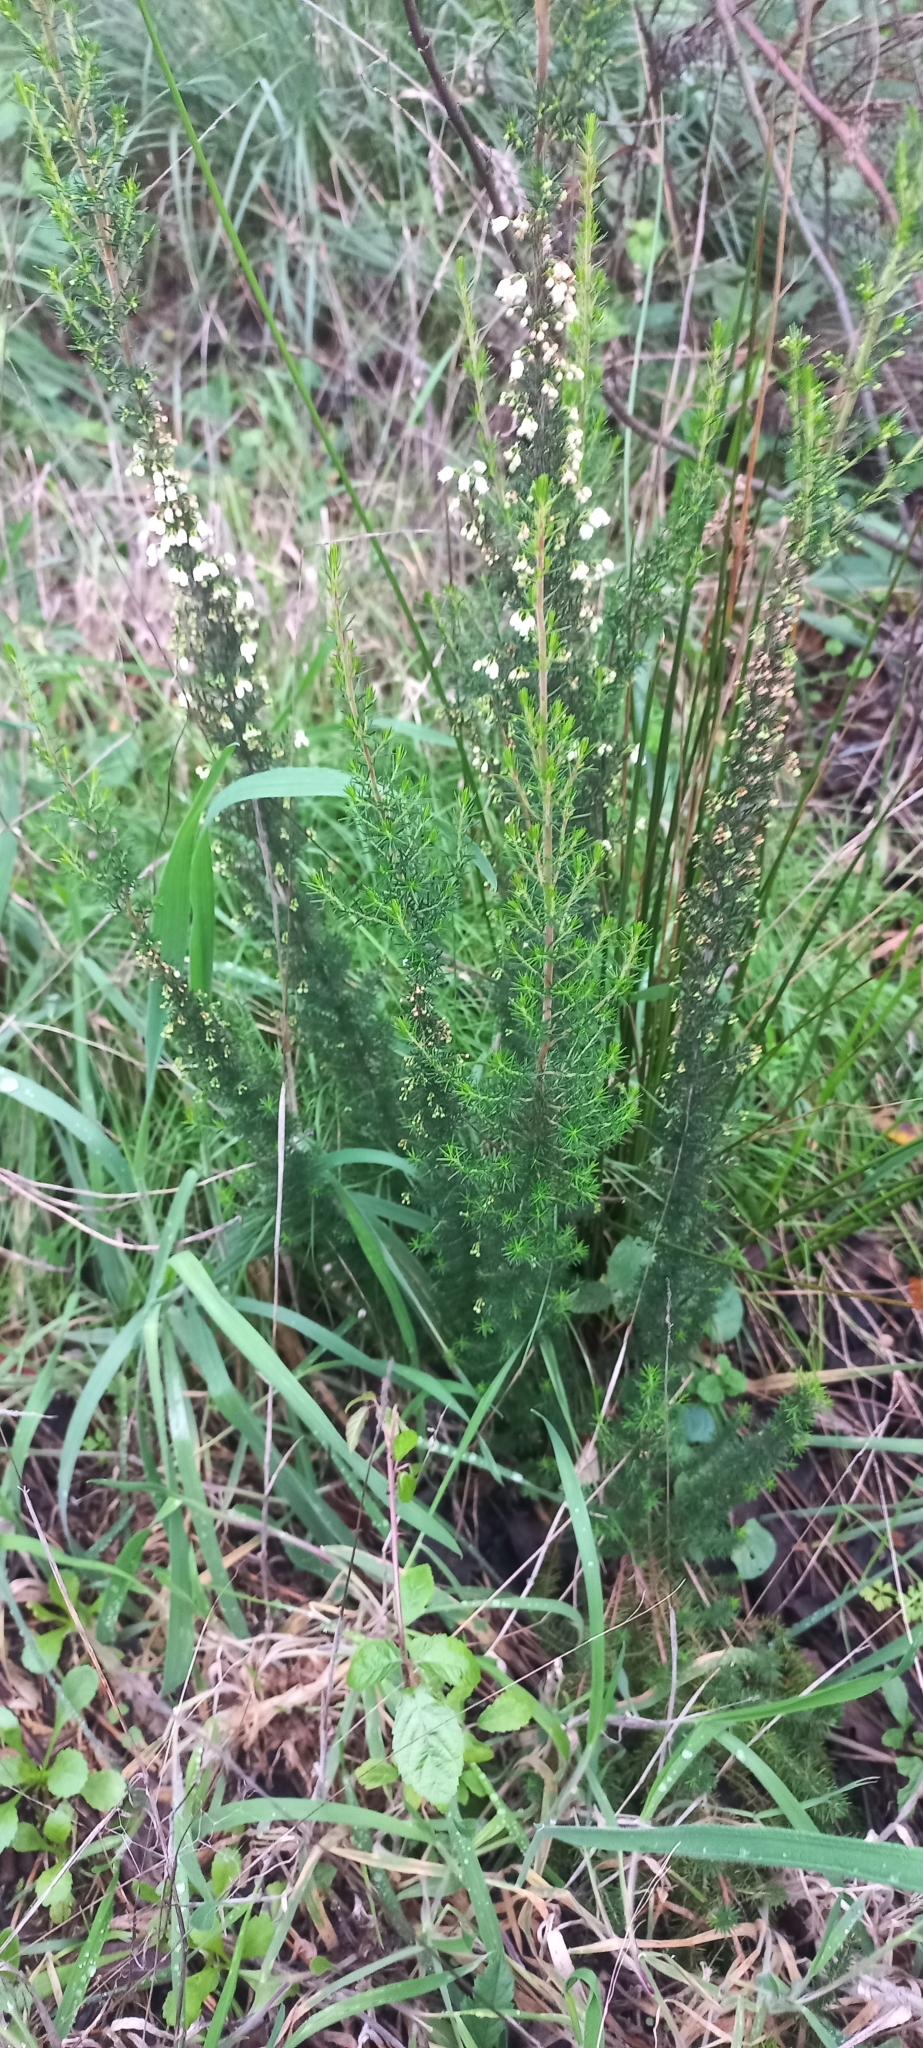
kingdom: Plantae
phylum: Tracheophyta
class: Magnoliopsida
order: Ericales
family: Ericaceae
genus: Erica
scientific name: Erica lusitanica
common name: Spanish heath
